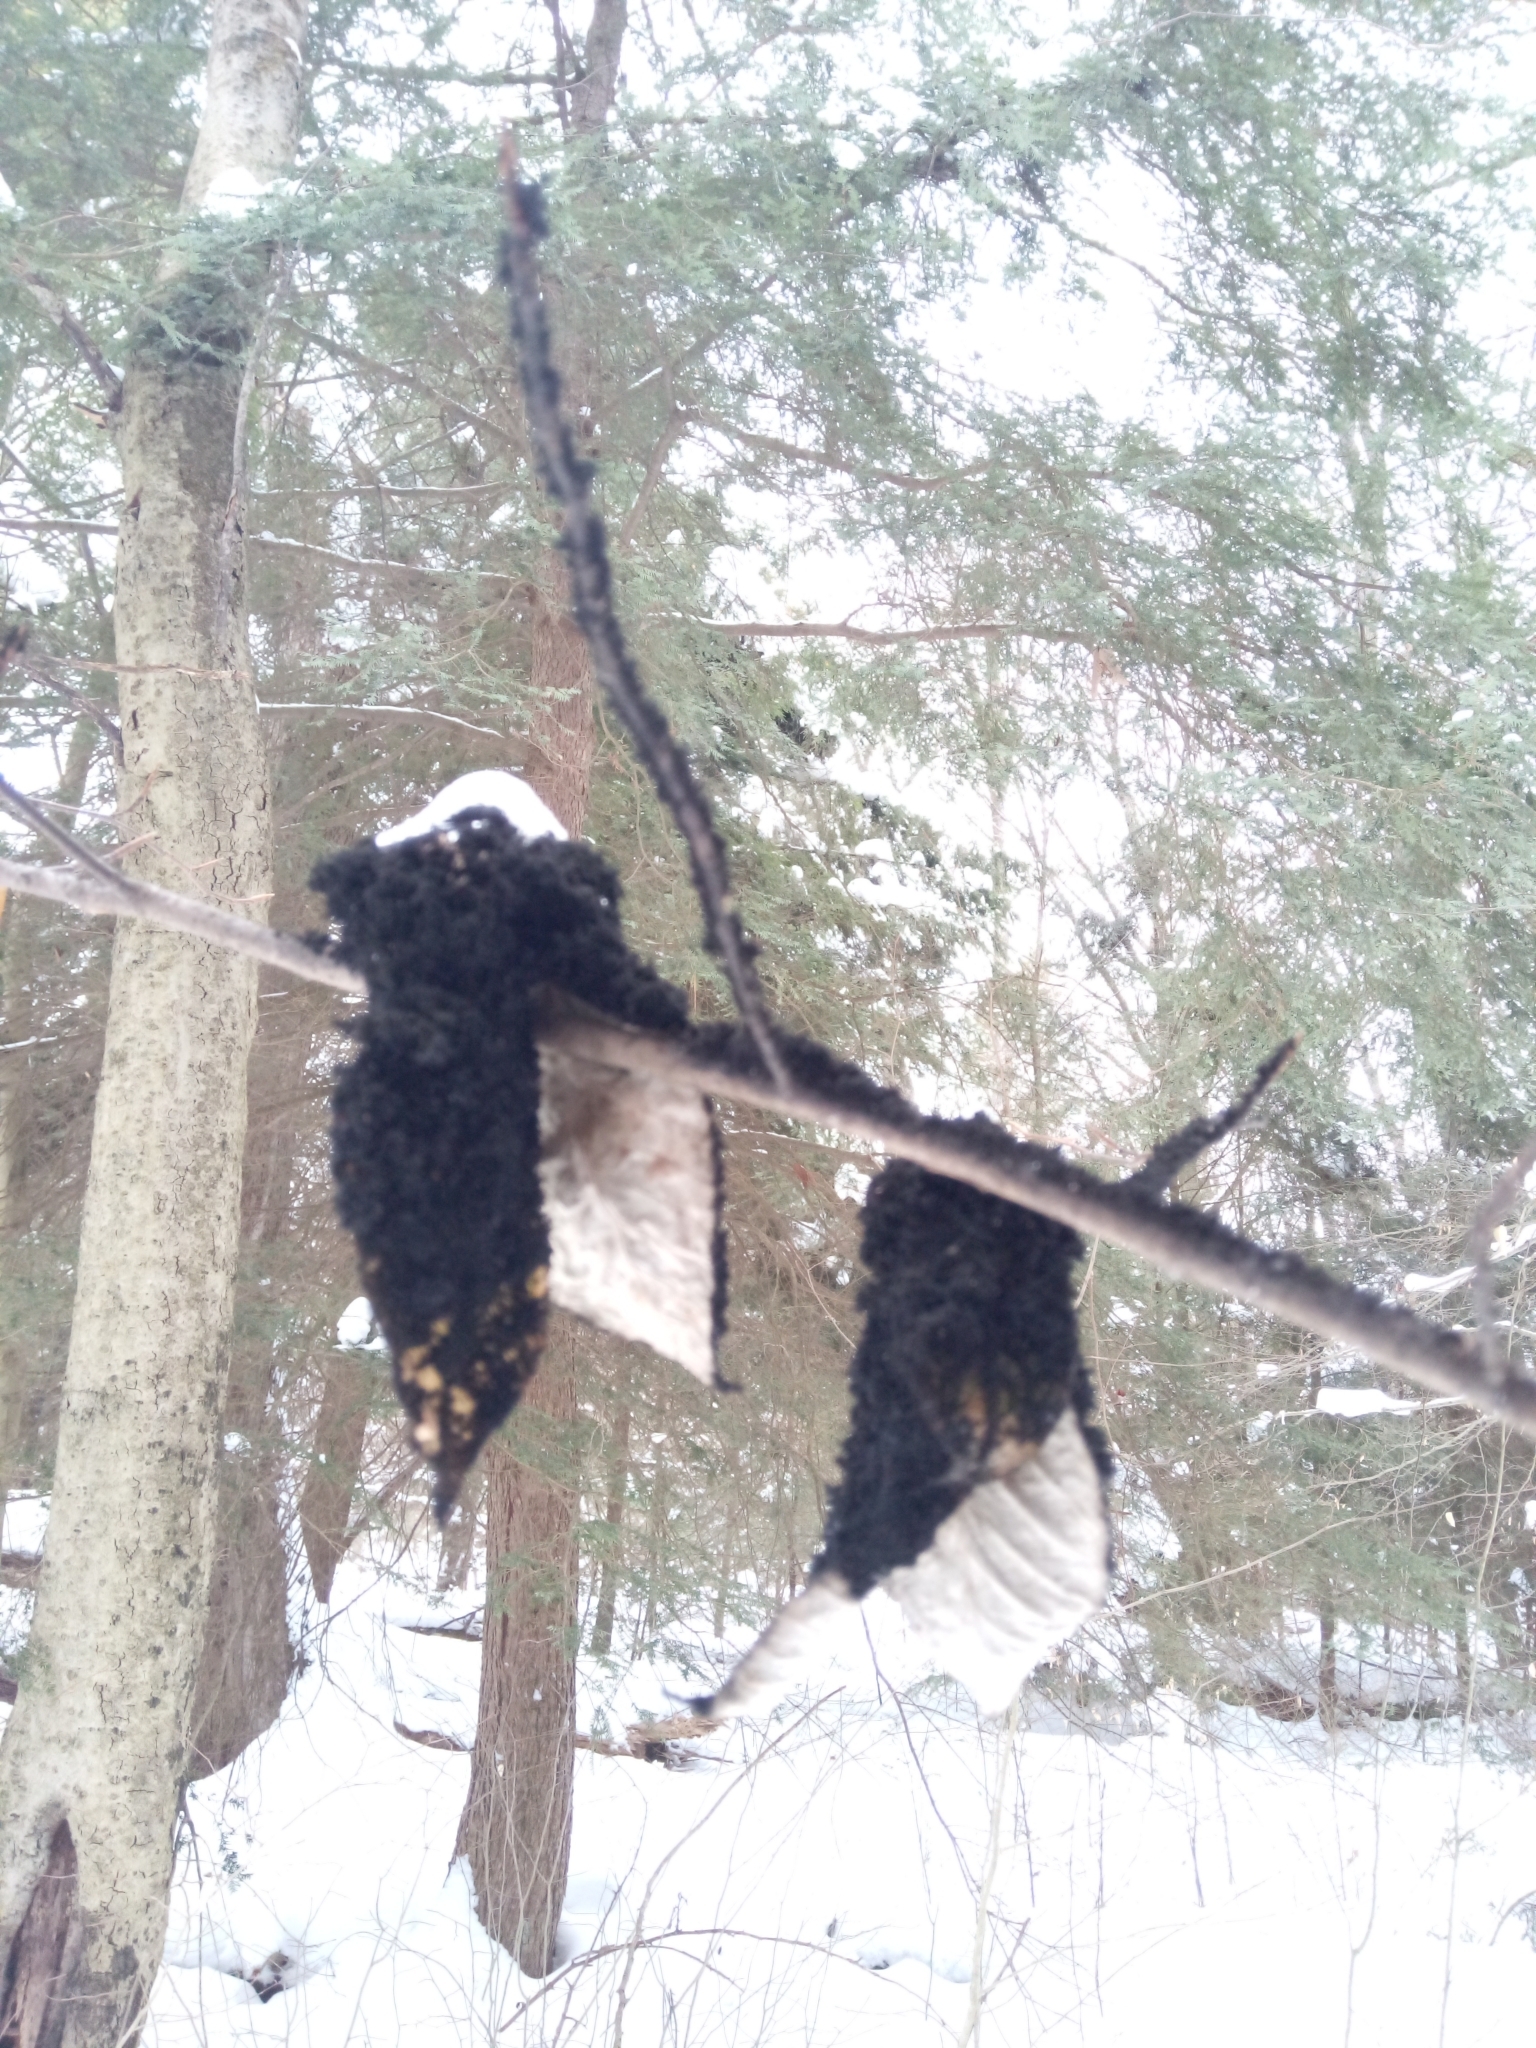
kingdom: Fungi
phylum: Ascomycota
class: Dothideomycetes
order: Capnodiales
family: Capnodiaceae
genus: Scorias
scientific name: Scorias spongiosa
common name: Black sooty mold
